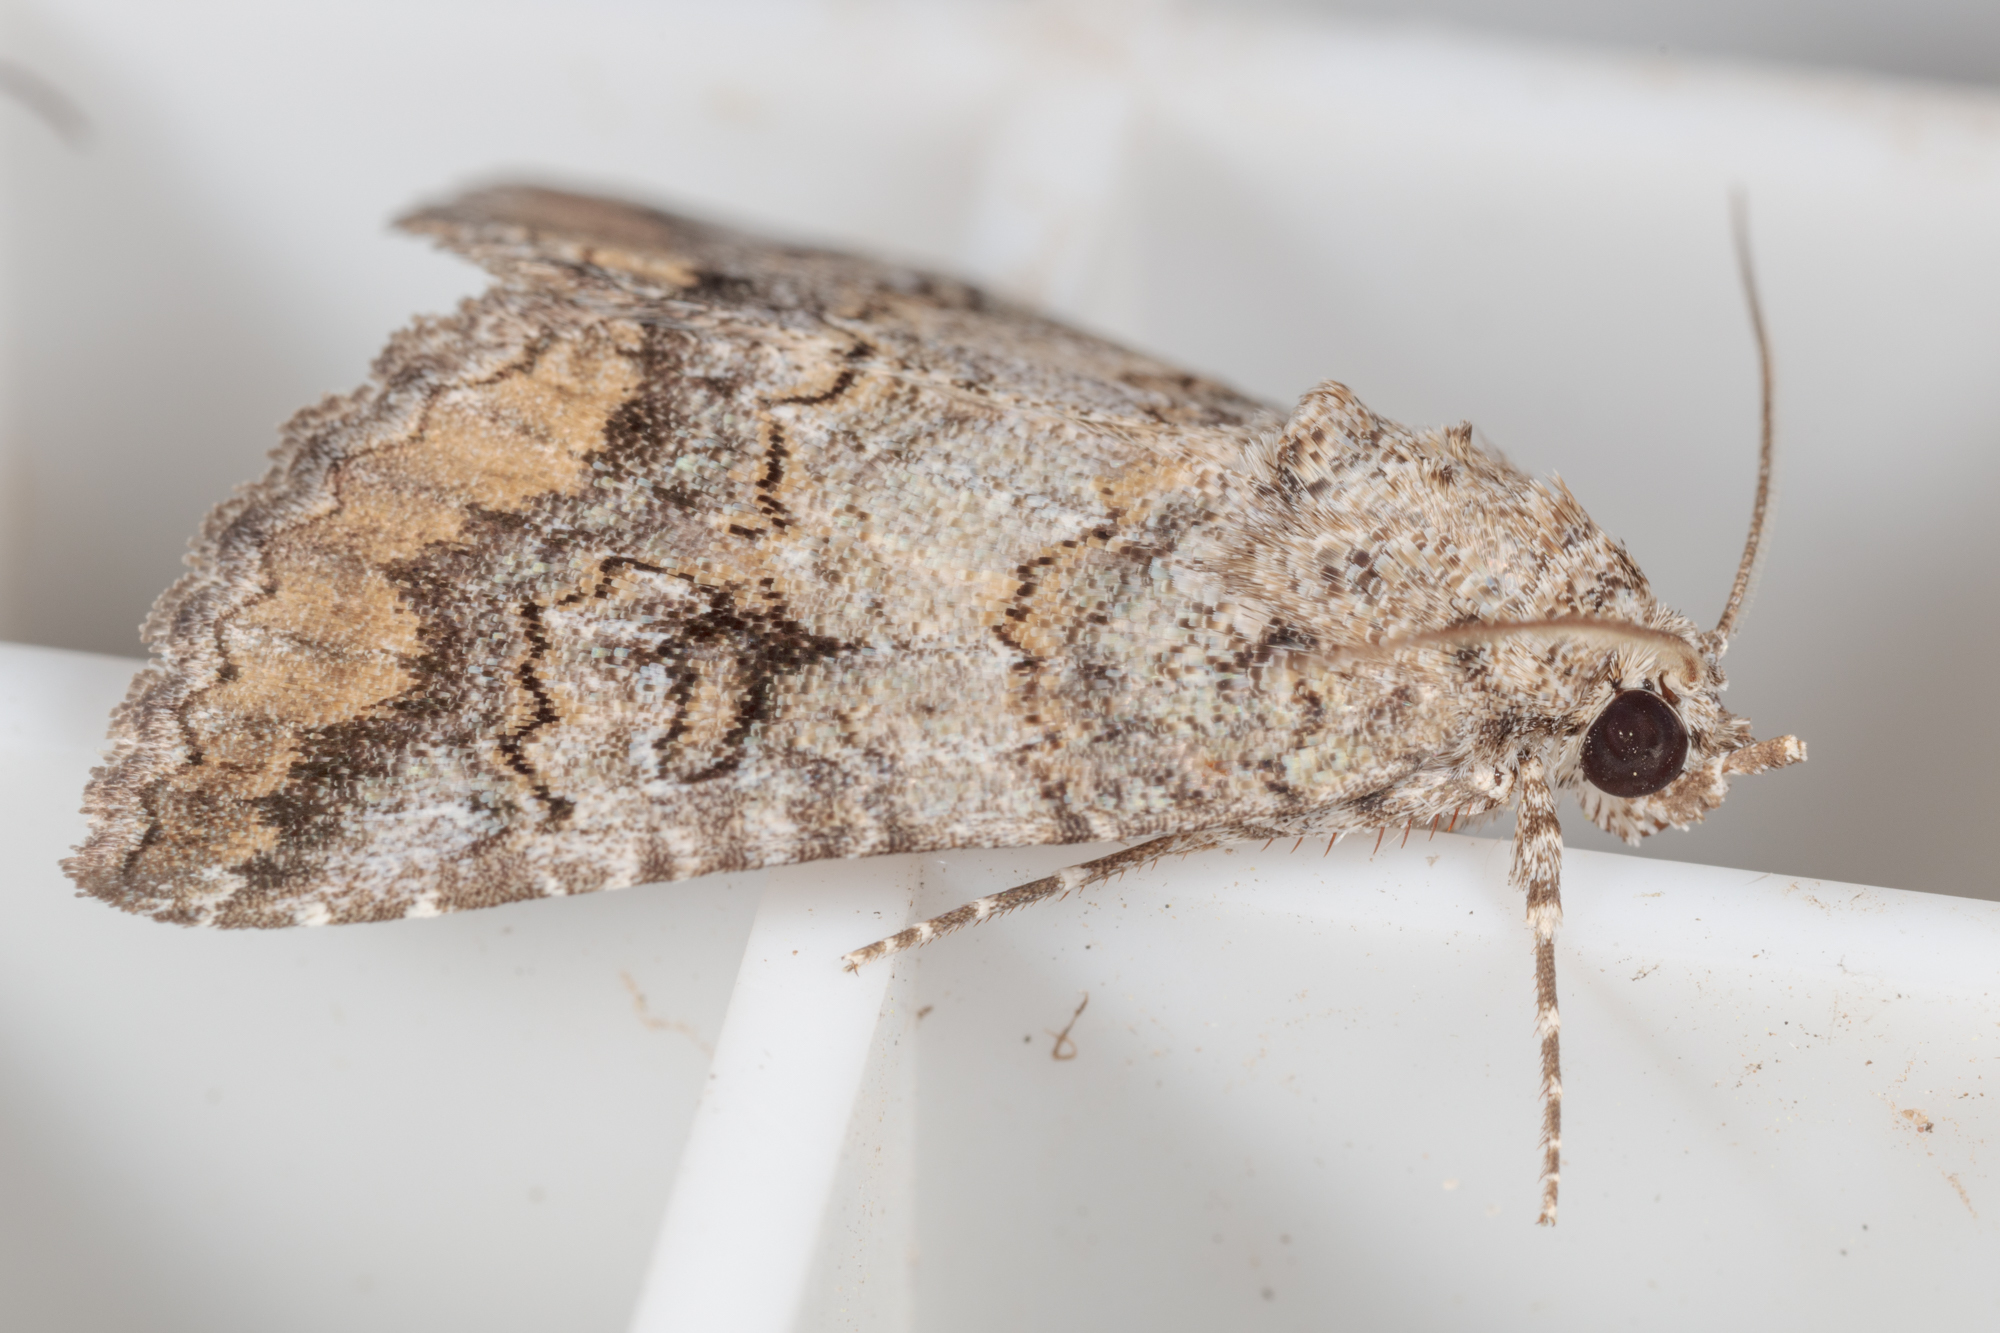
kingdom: Animalia
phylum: Arthropoda
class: Insecta
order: Lepidoptera
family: Erebidae
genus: Eubolina
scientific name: Eubolina impartialis
